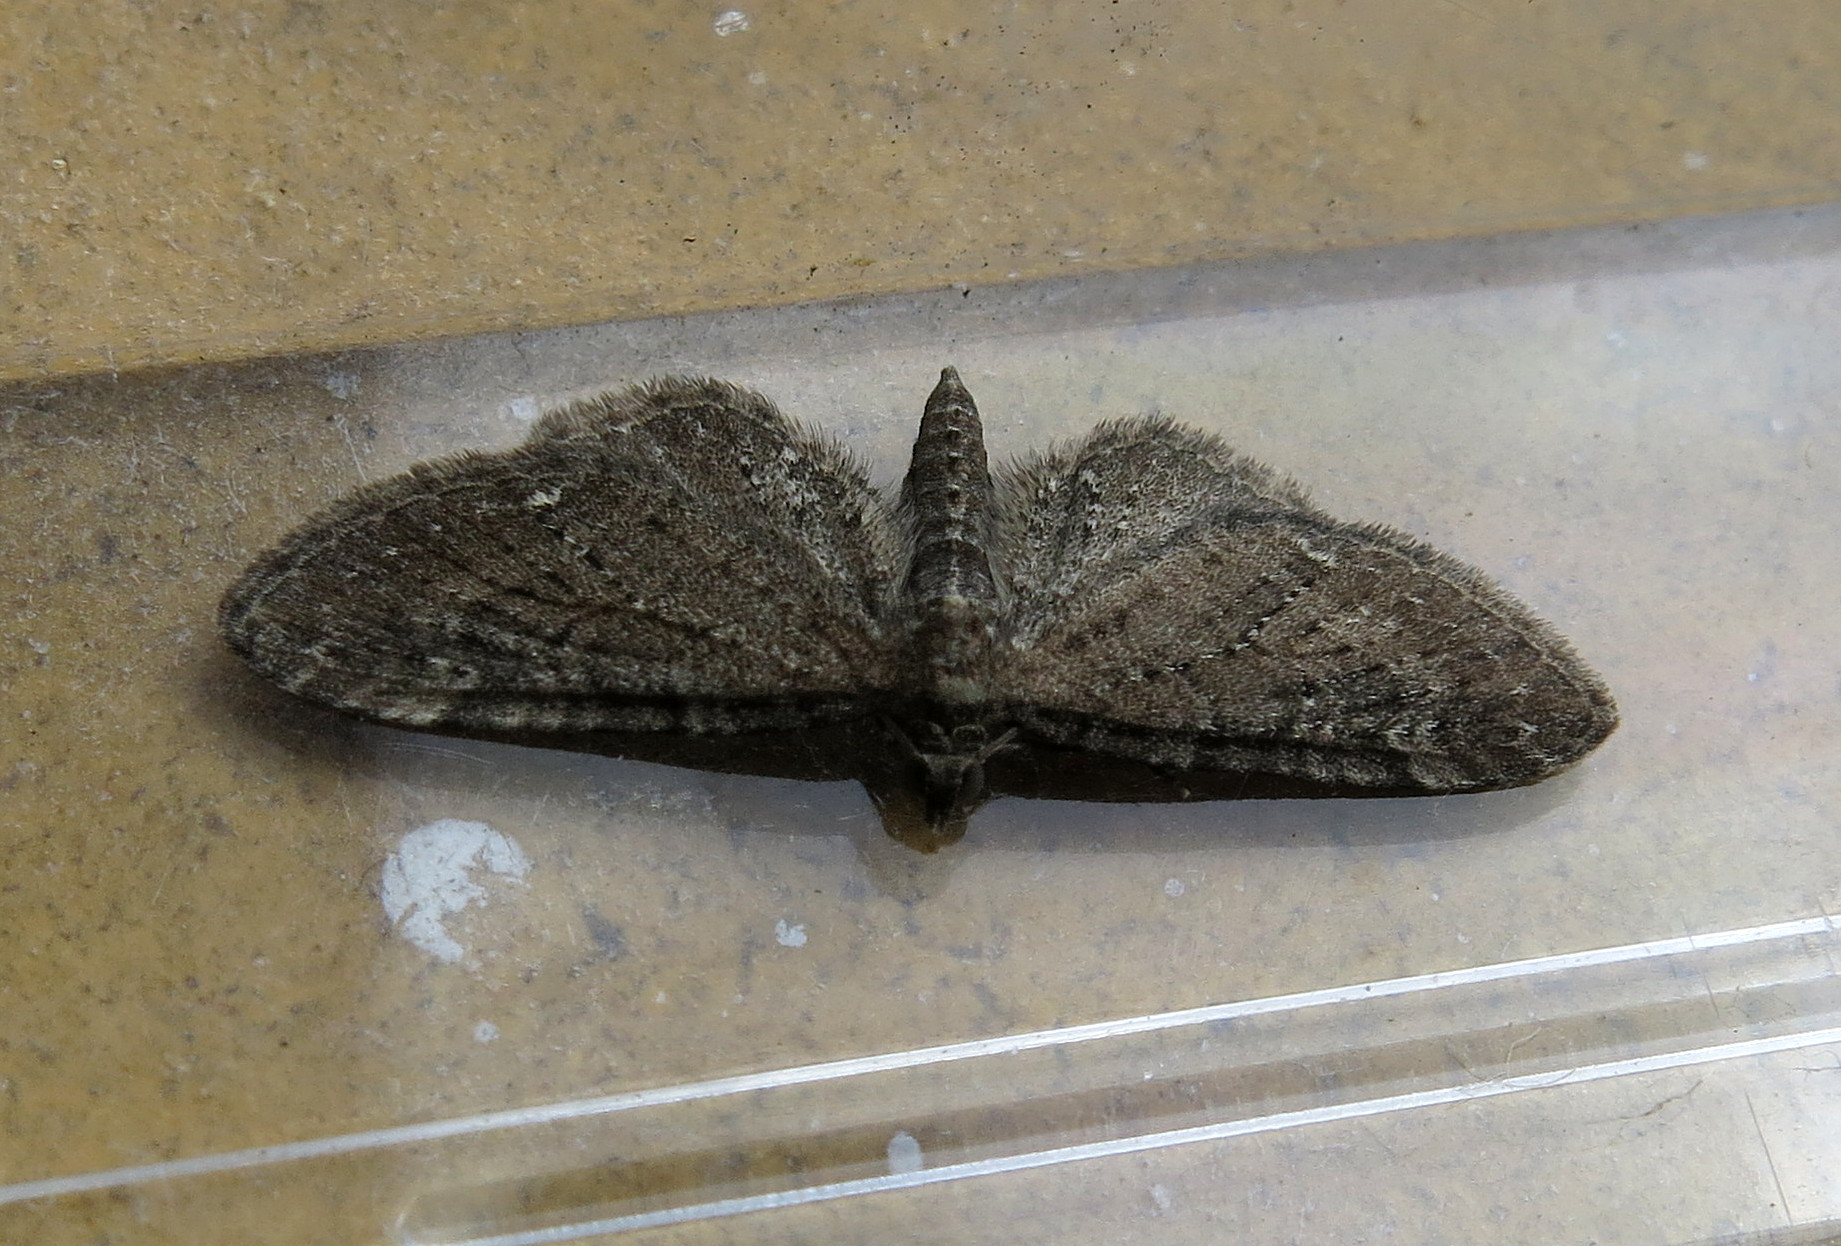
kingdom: Animalia
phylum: Arthropoda
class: Insecta
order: Lepidoptera
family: Geometridae
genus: Eupithecia
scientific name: Eupithecia vulgata
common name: Common pug
